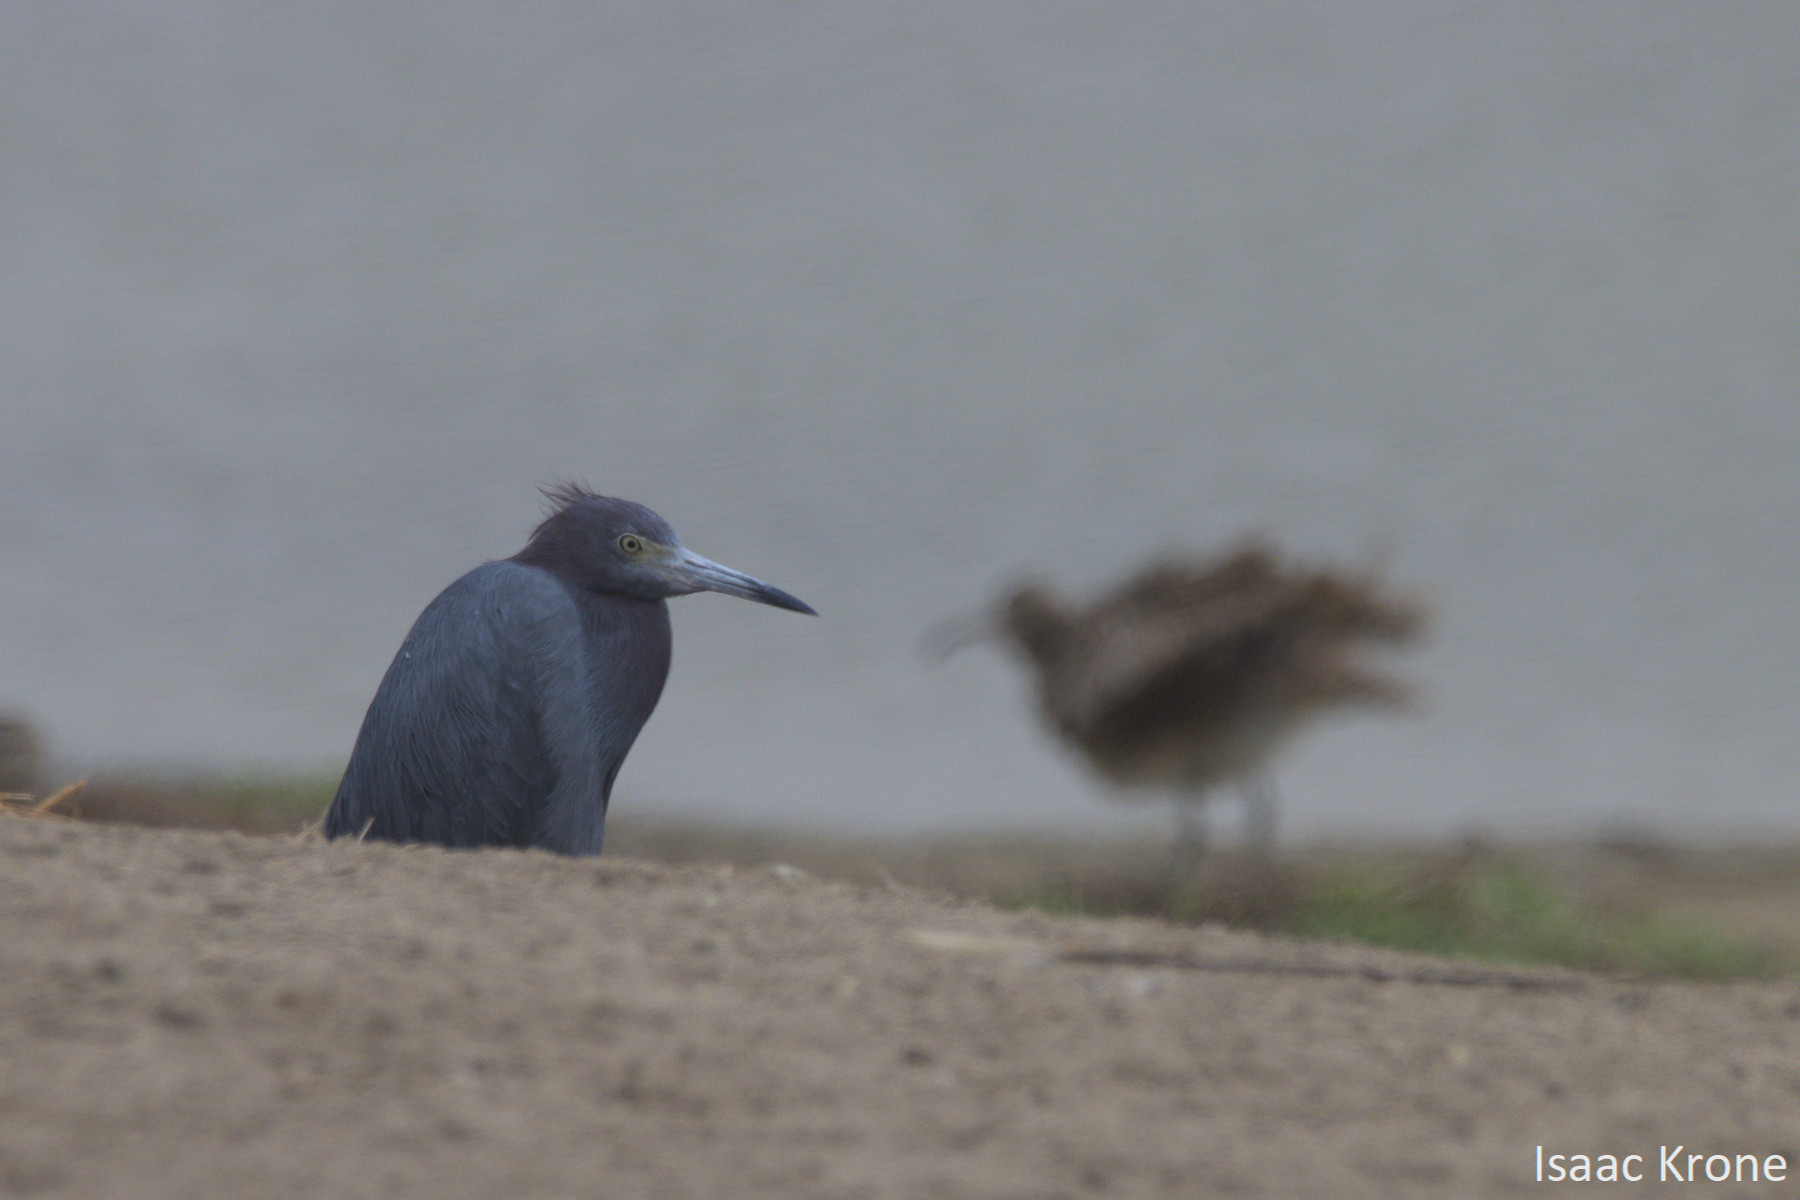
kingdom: Animalia
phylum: Chordata
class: Aves
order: Pelecaniformes
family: Ardeidae
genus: Egretta
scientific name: Egretta caerulea
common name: Little blue heron
